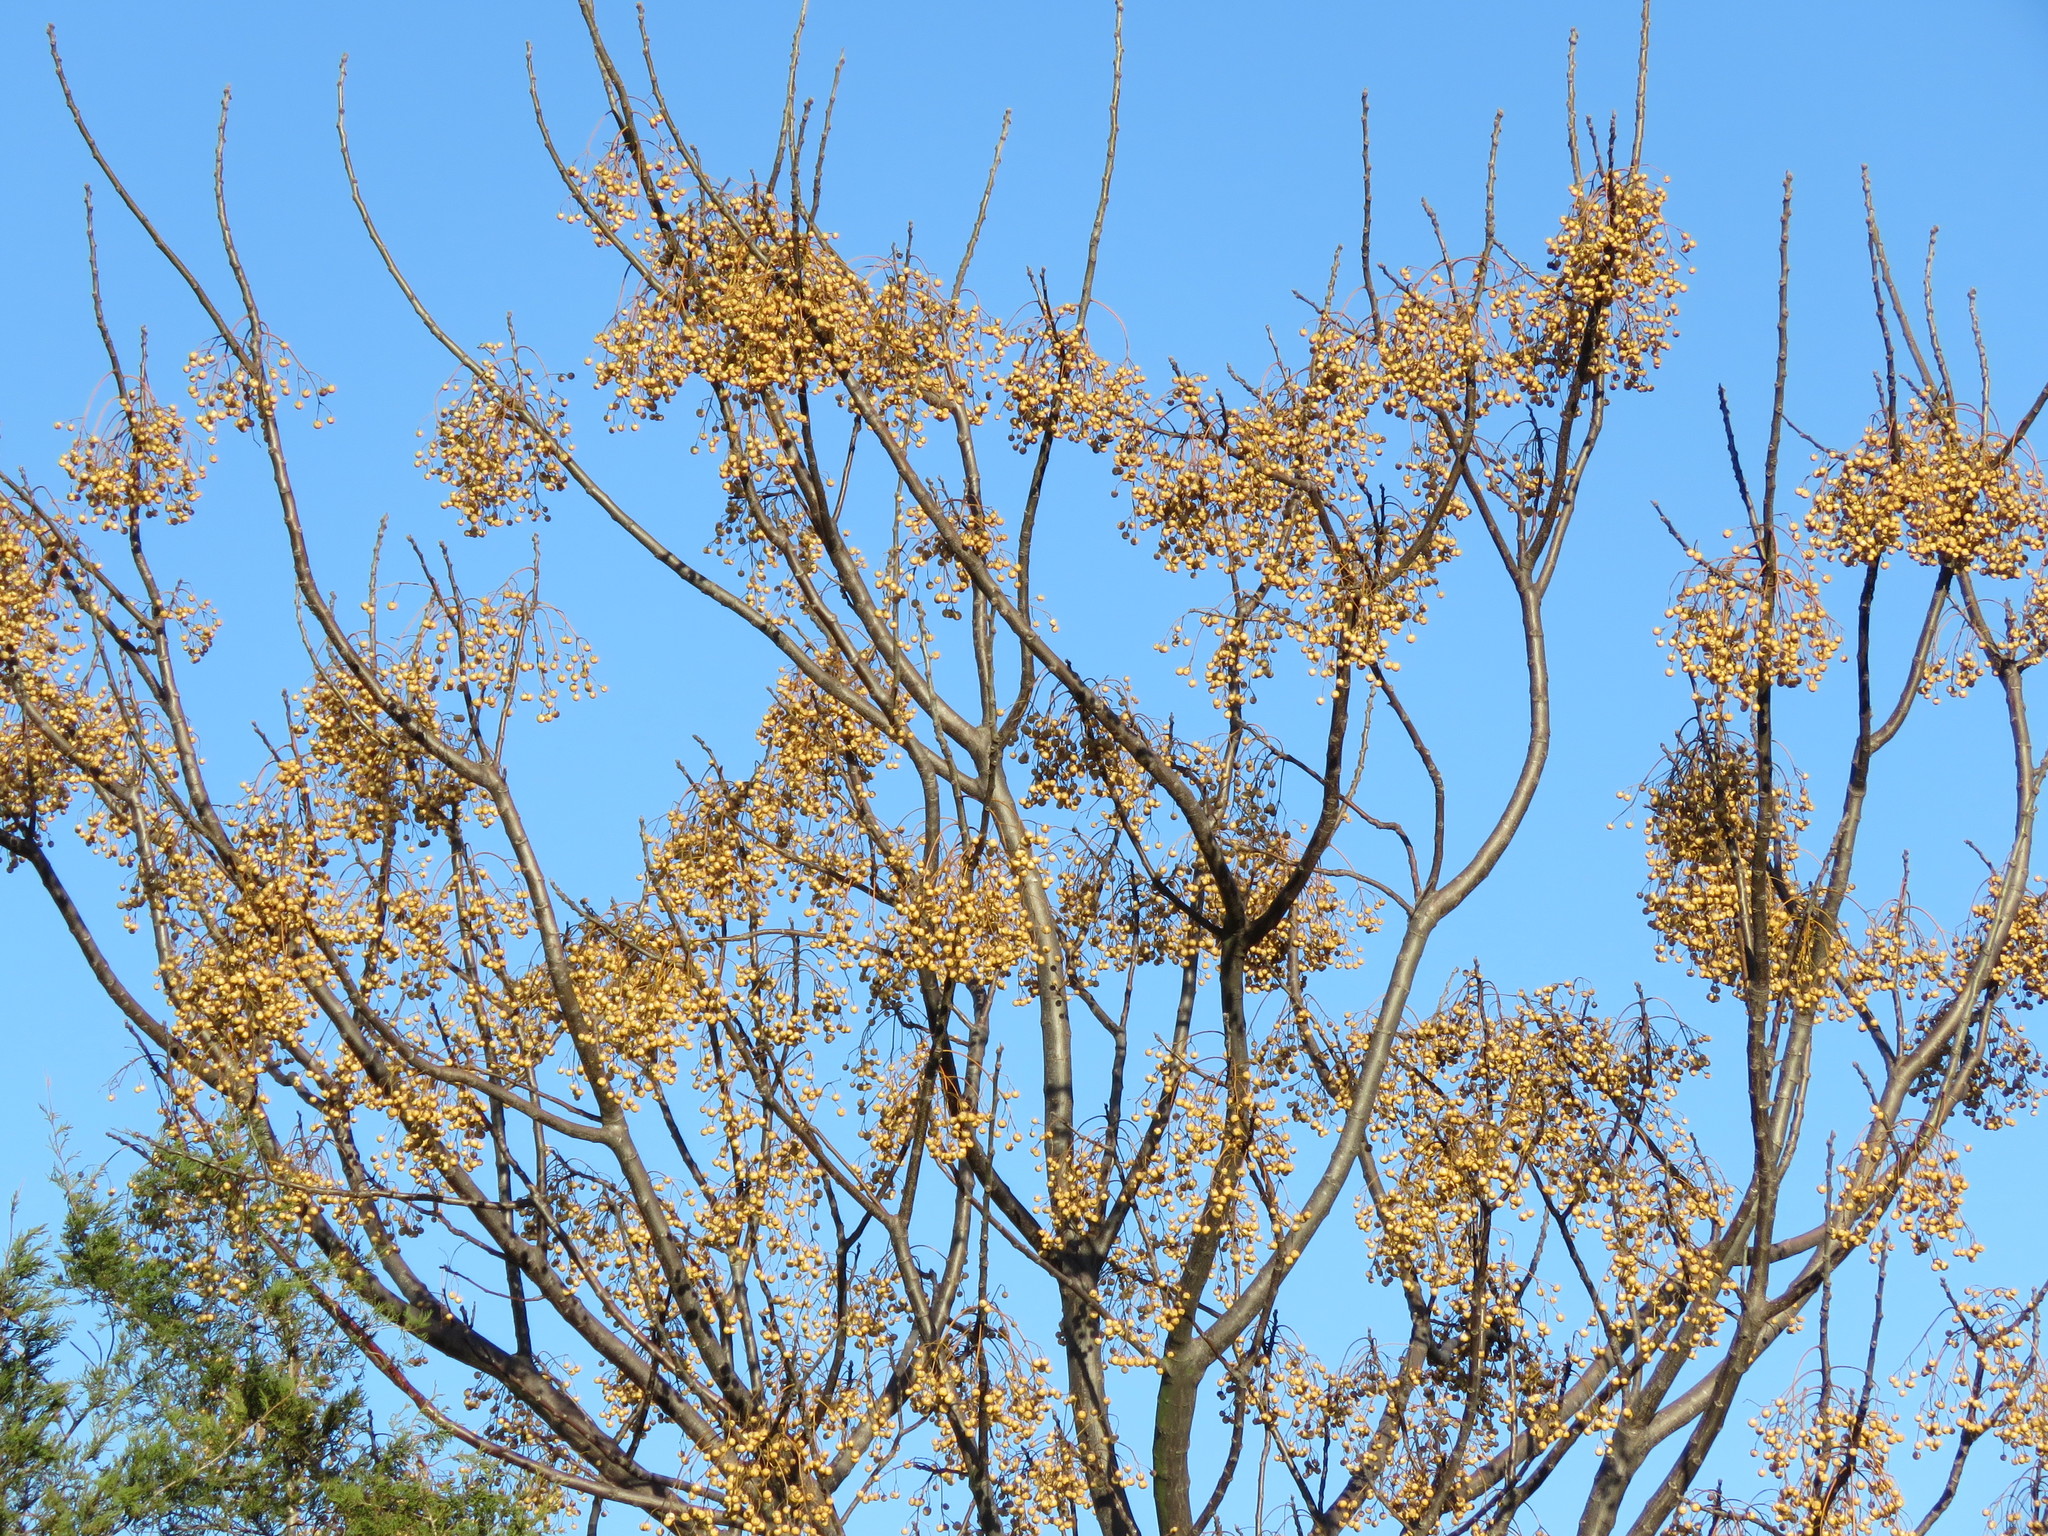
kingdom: Plantae
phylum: Tracheophyta
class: Magnoliopsida
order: Sapindales
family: Meliaceae
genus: Melia
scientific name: Melia azedarach
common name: Chinaberrytree
